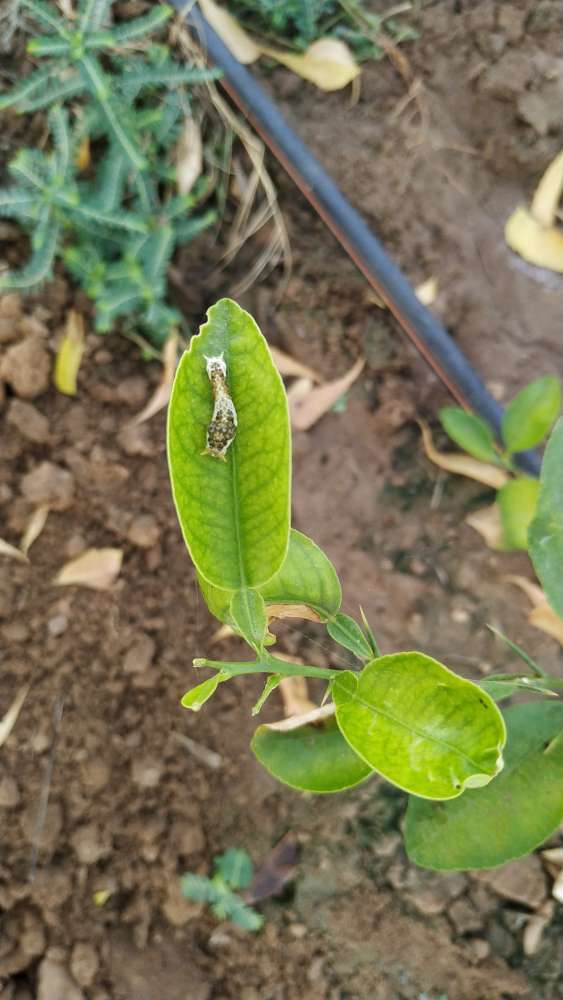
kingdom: Animalia
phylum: Arthropoda
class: Insecta
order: Lepidoptera
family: Papilionidae
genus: Papilio
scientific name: Papilio polytes
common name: Common mormon
